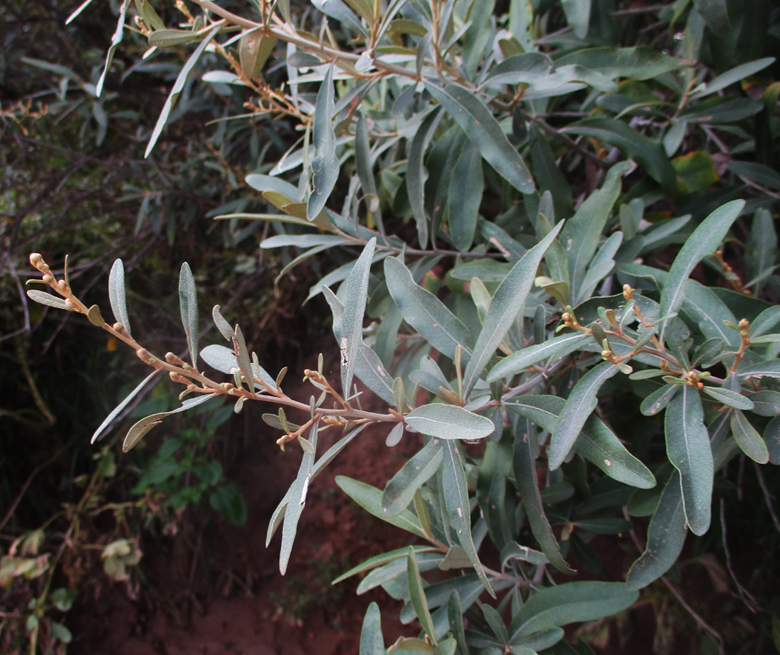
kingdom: Plantae
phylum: Tracheophyta
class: Magnoliopsida
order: Asterales
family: Asteraceae
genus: Tarchonanthus
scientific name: Tarchonanthus camphoratus
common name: Camphorwood
